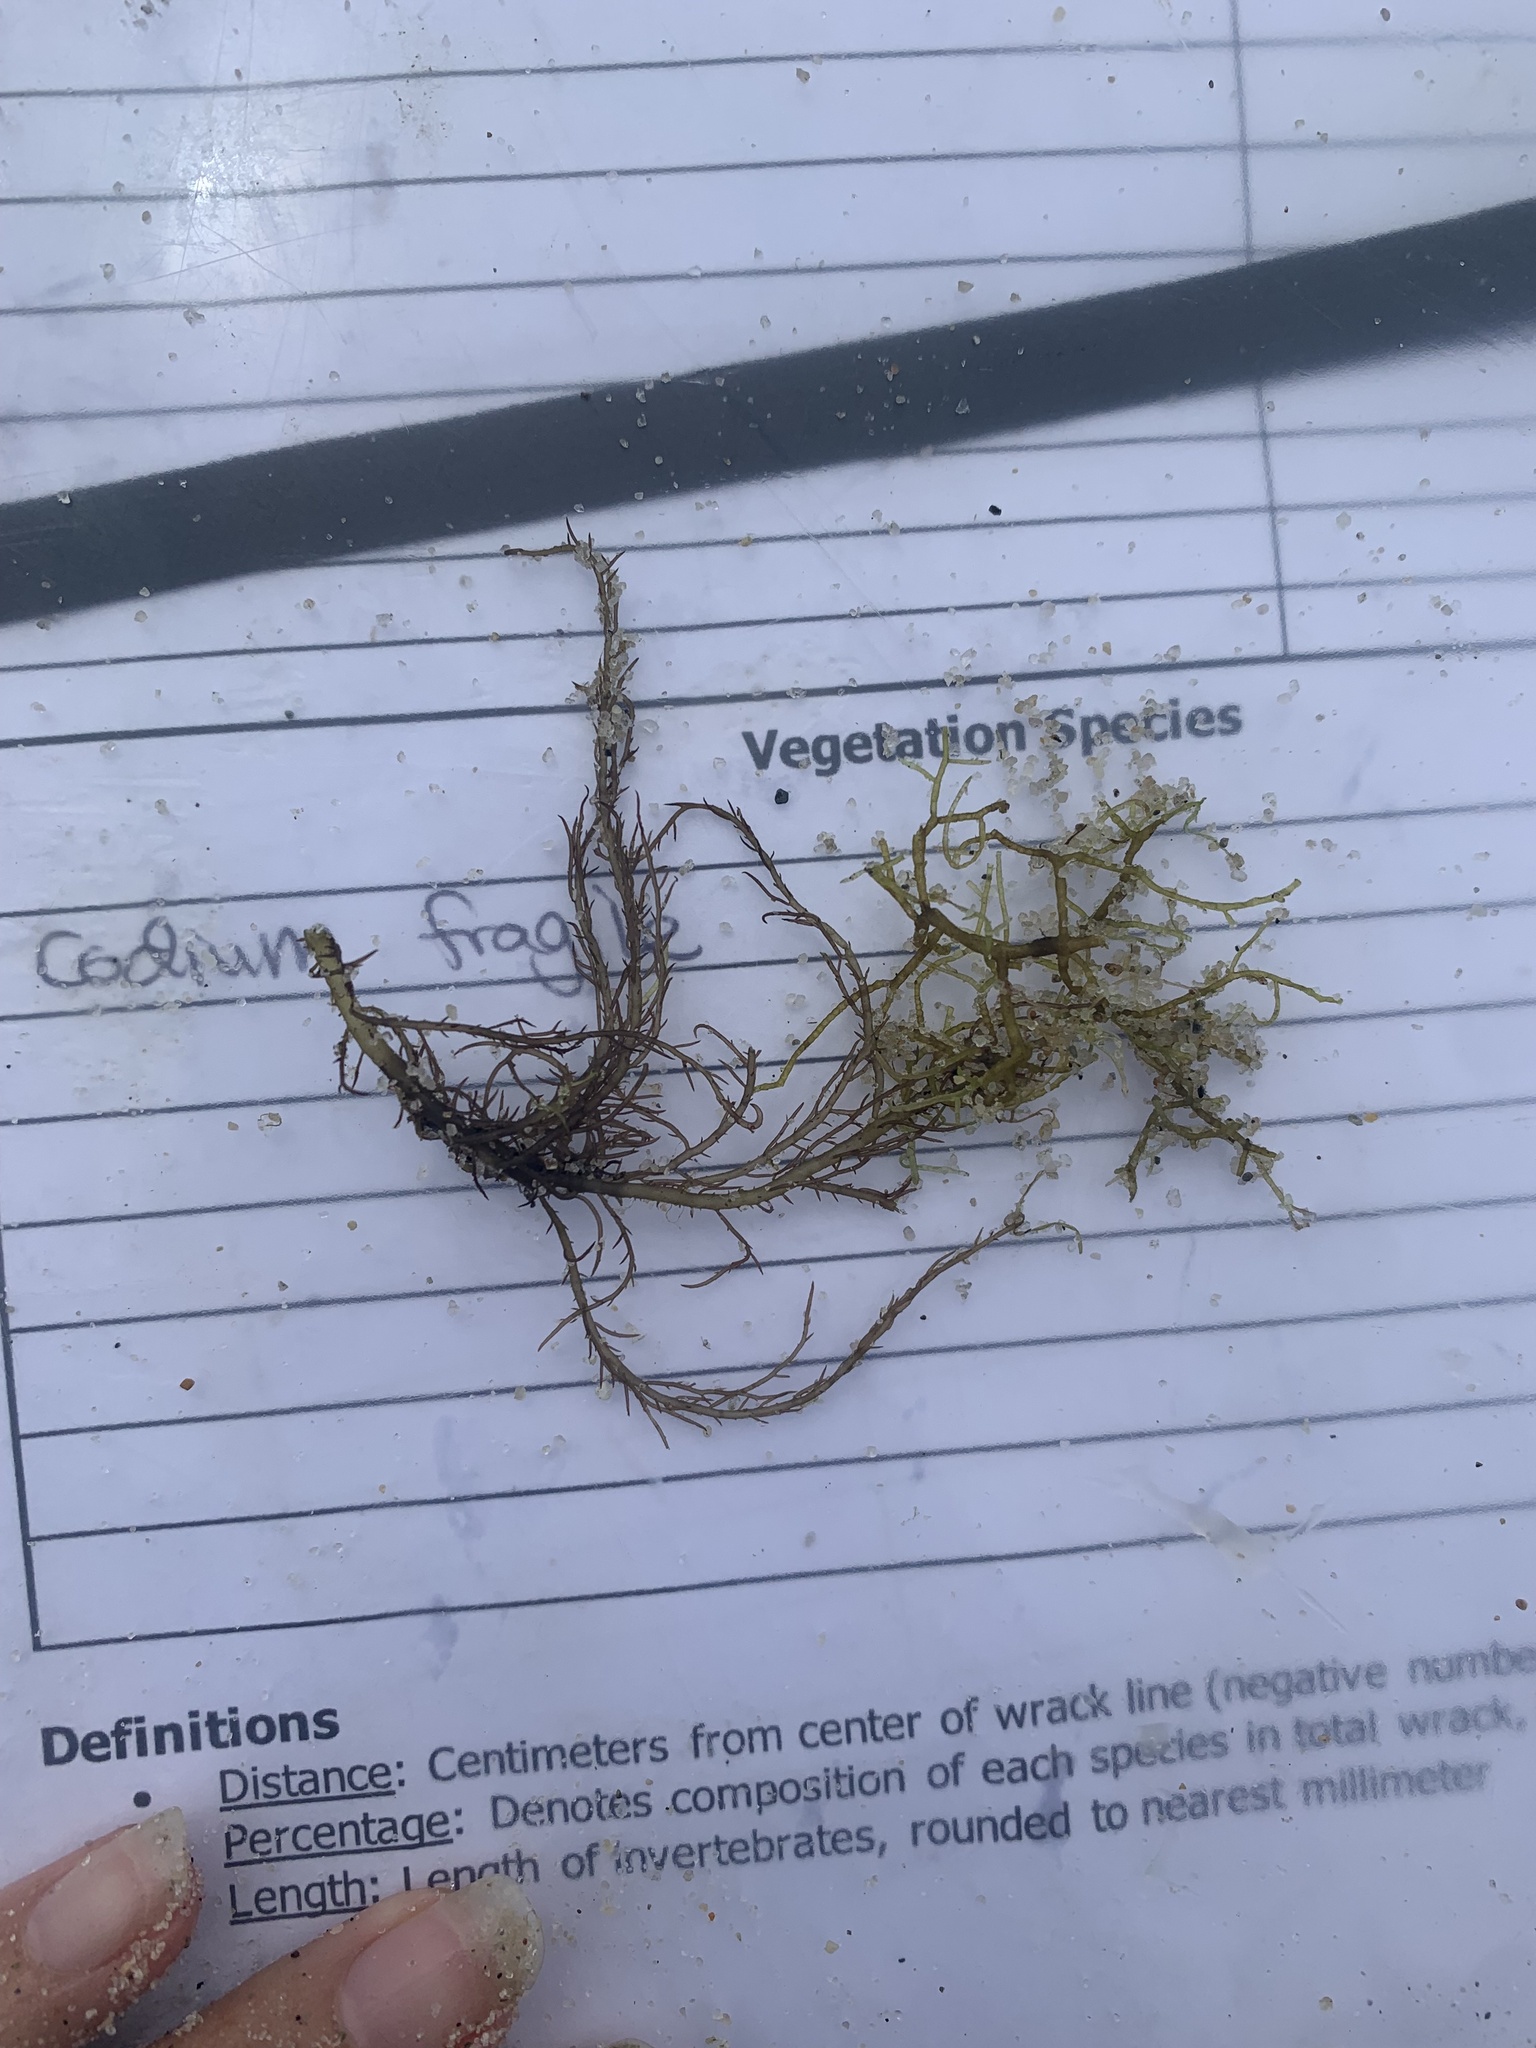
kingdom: Plantae
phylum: Rhodophyta
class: Florideophyceae
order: Gigartinales
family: Cystocloniaceae
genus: Hypnea
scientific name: Hypnea musciformis
